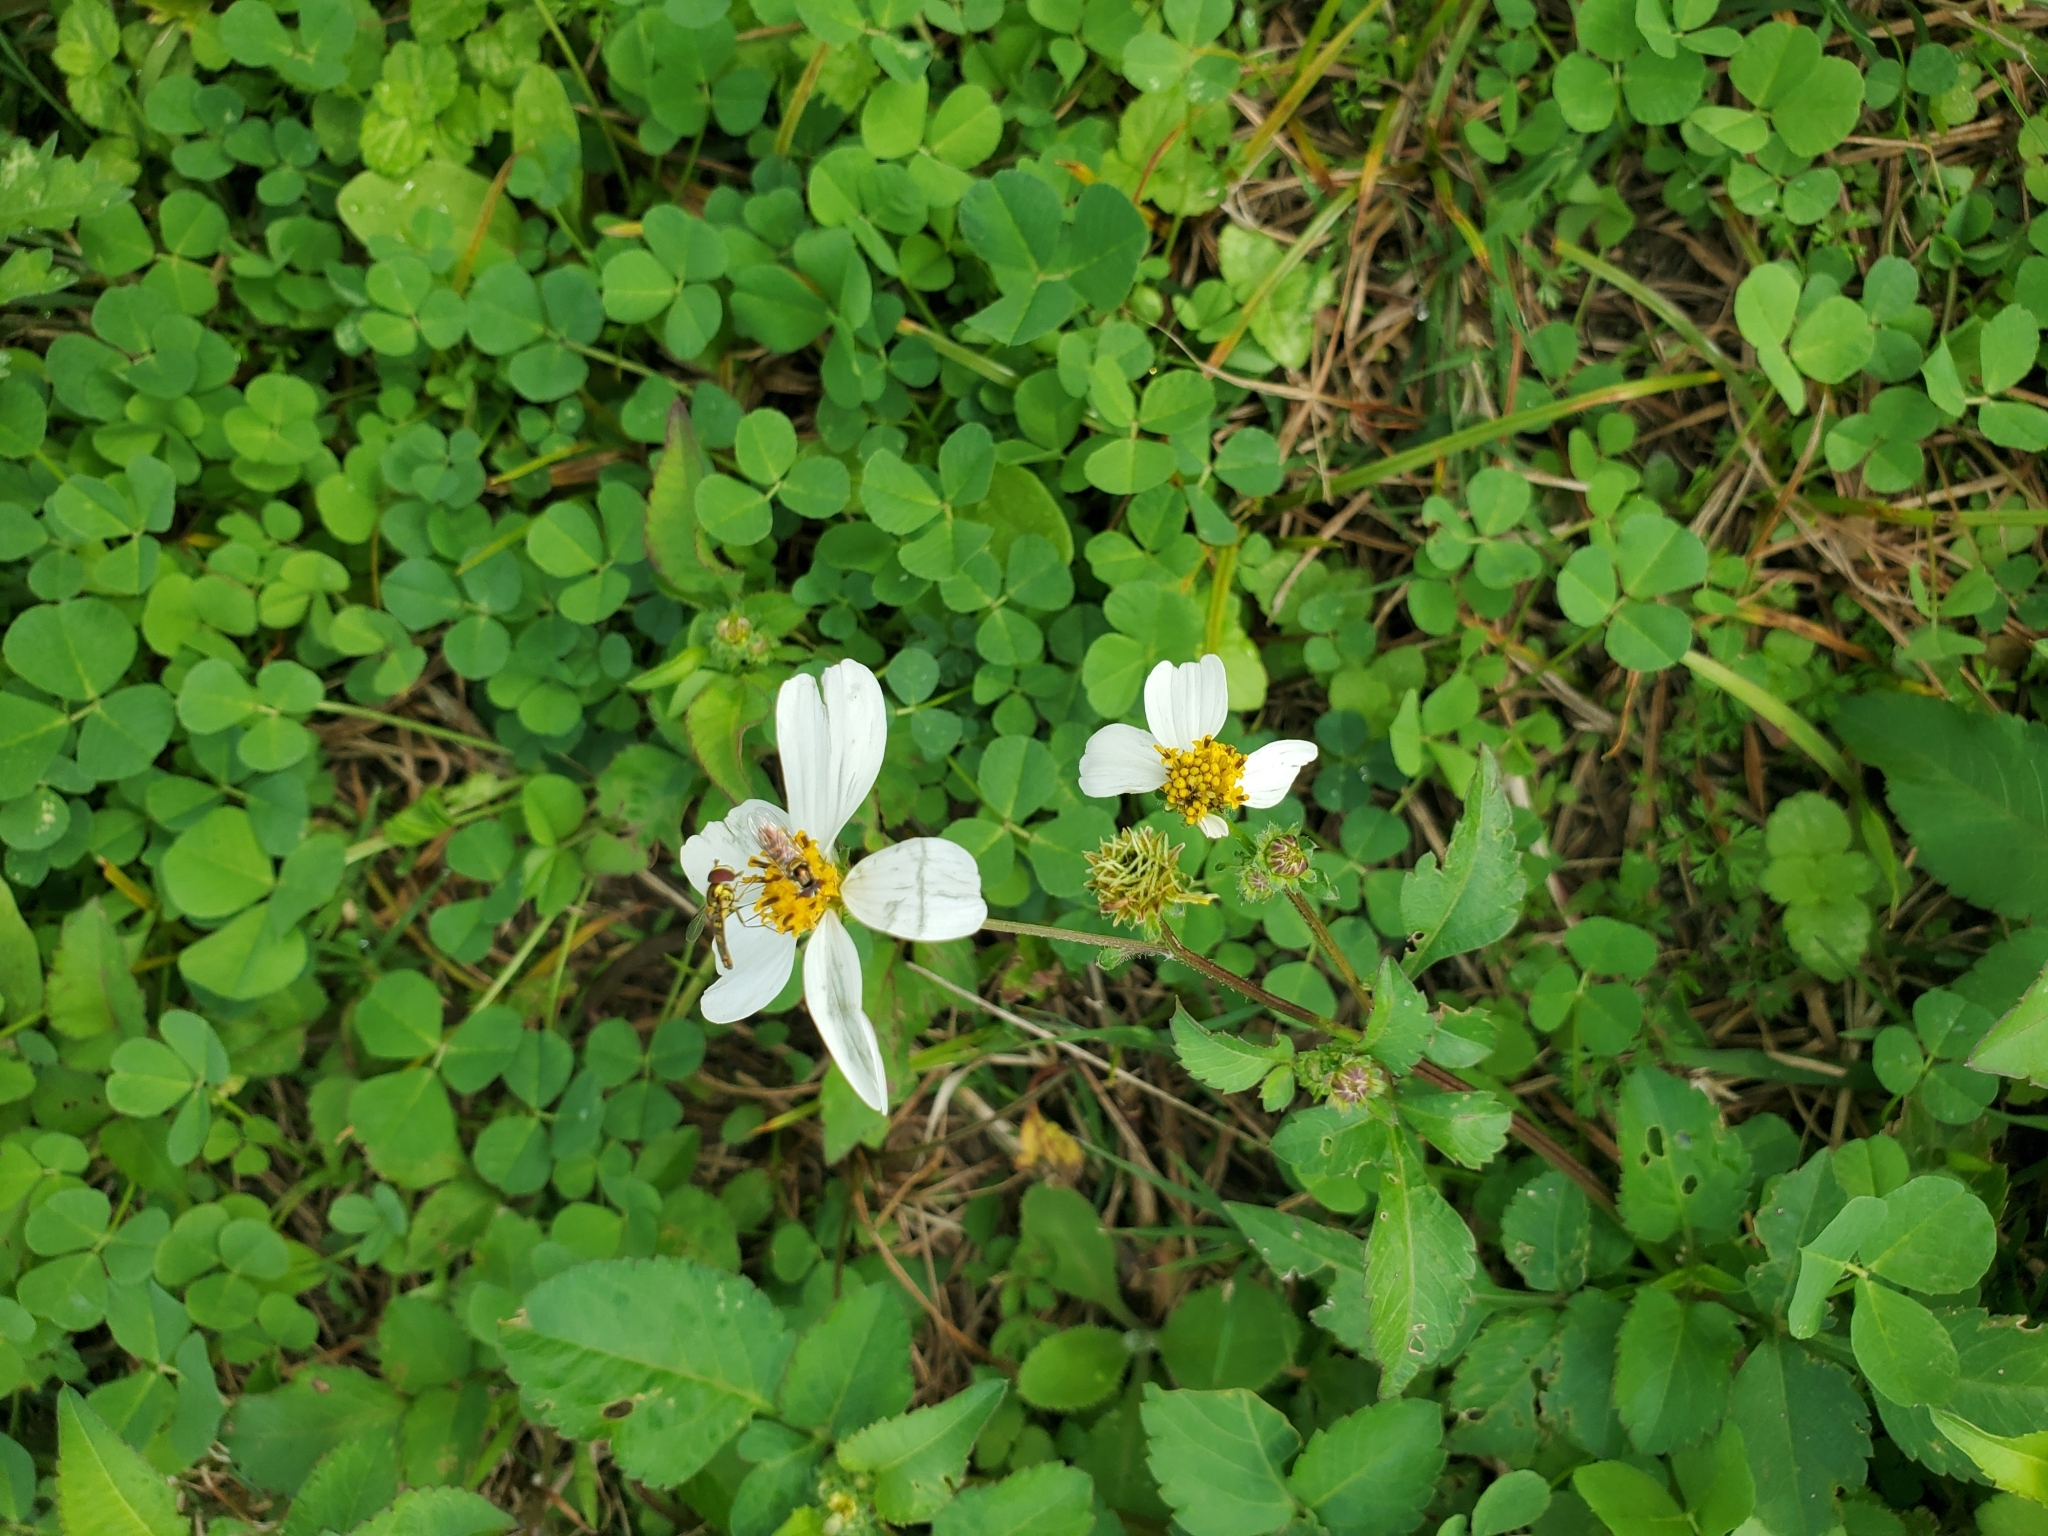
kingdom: Plantae
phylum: Tracheophyta
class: Magnoliopsida
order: Asterales
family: Asteraceae
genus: Bidens
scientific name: Bidens alba
